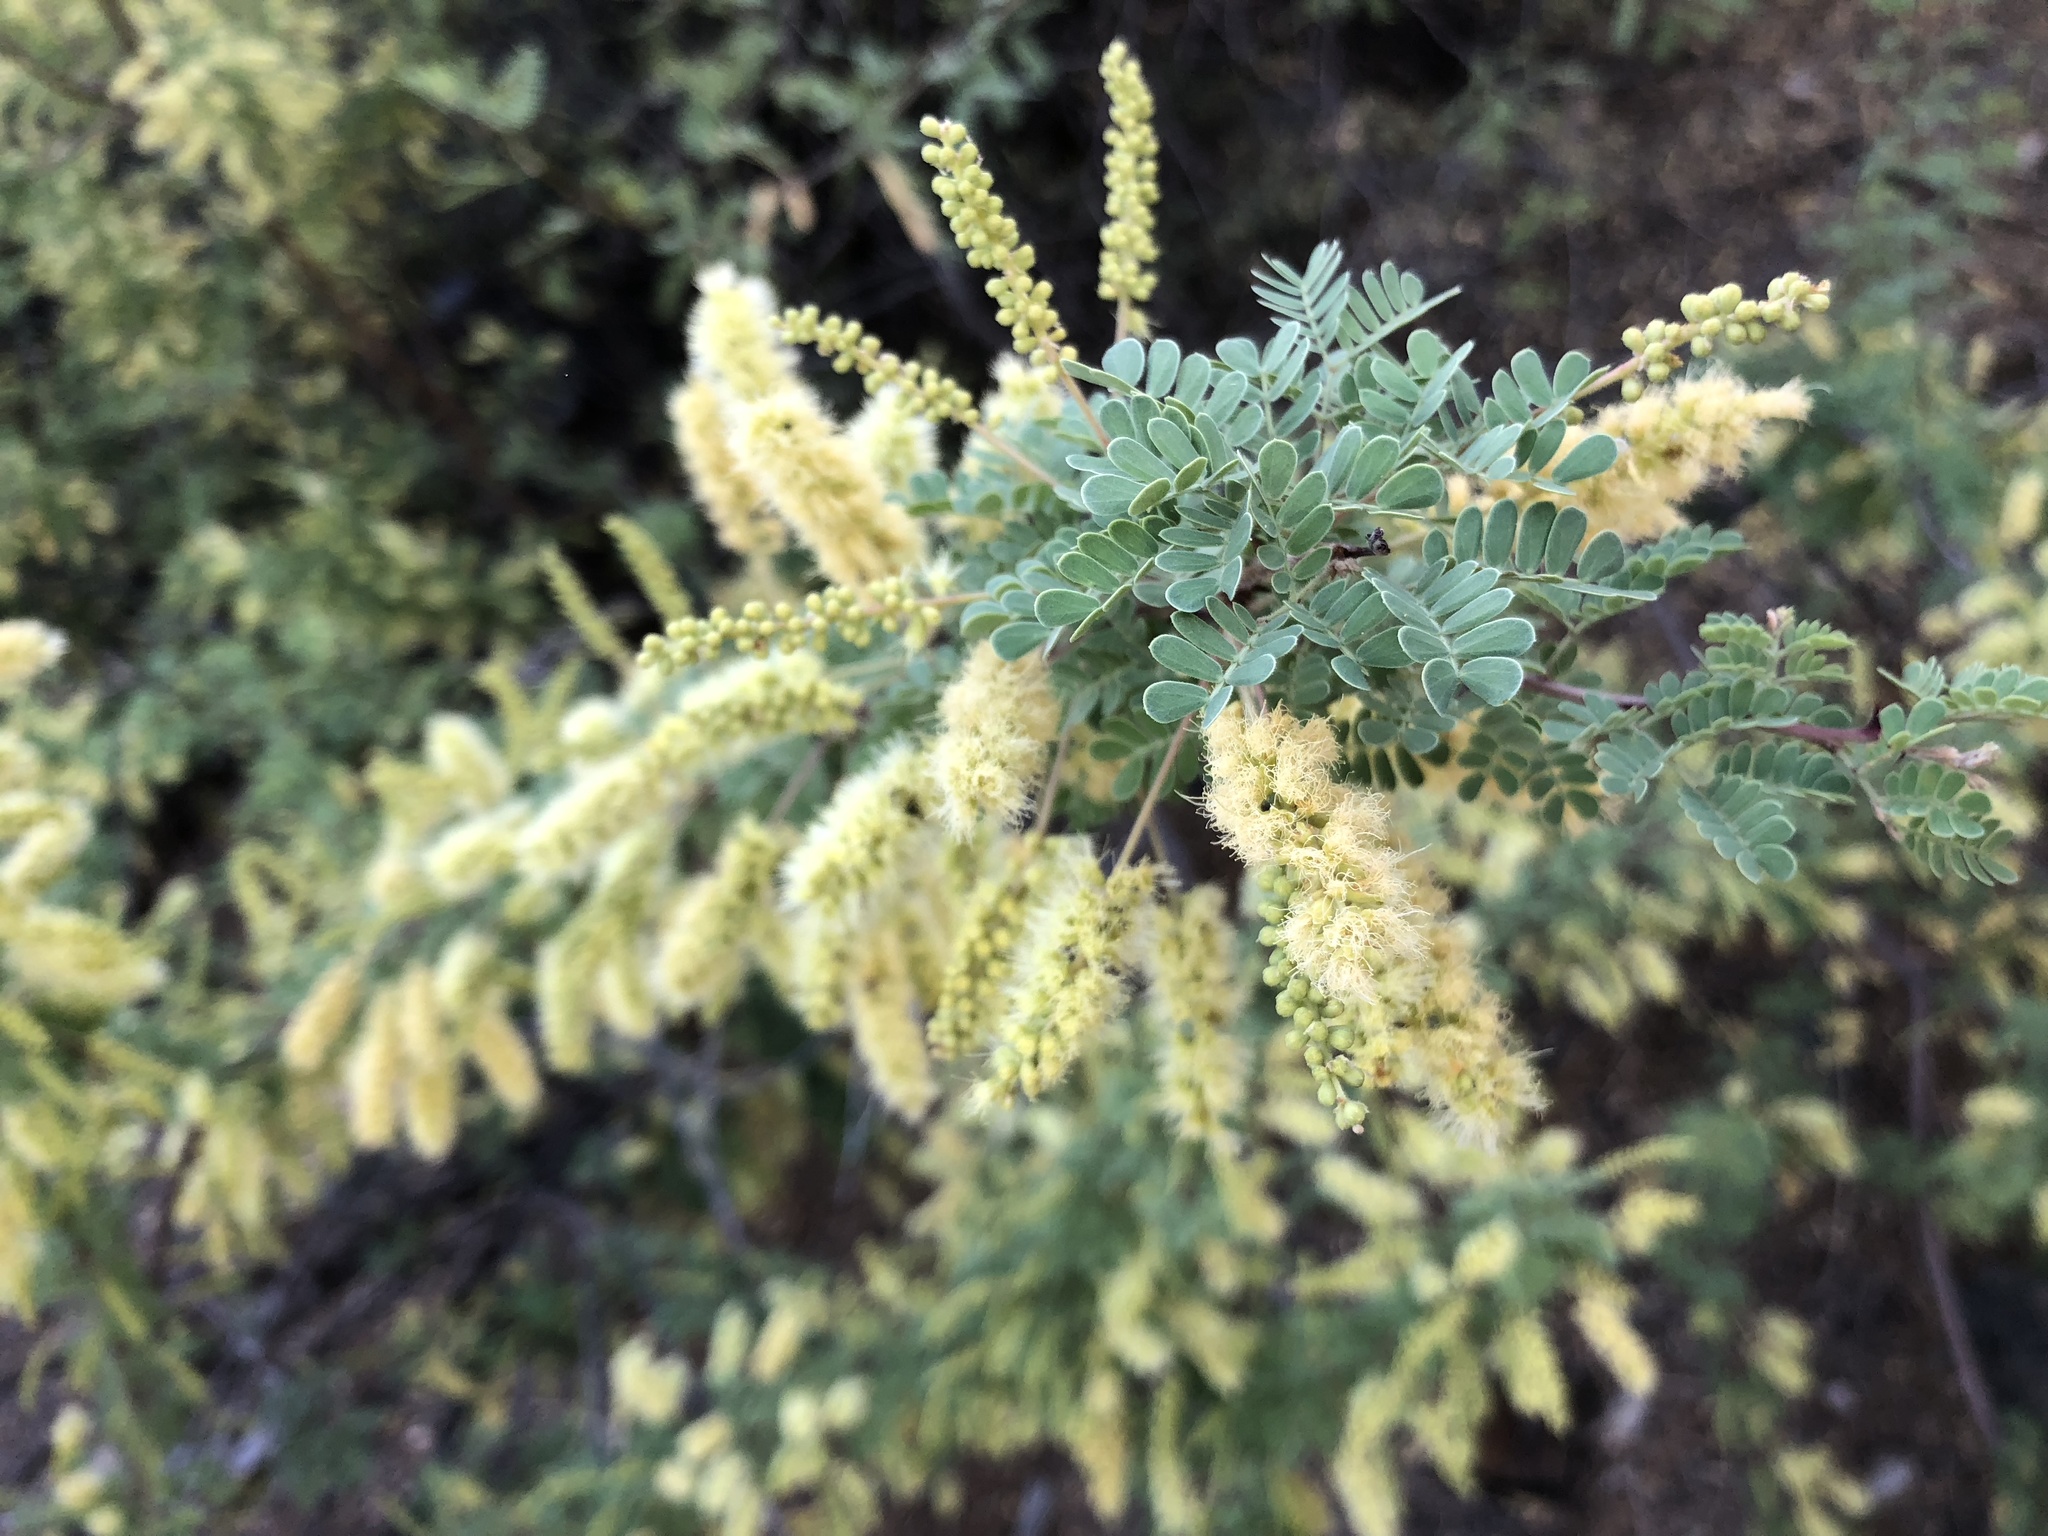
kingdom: Plantae
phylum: Tracheophyta
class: Magnoliopsida
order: Fabales
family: Fabaceae
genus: Senegalia
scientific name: Senegalia greggii
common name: Texas-mimosa
